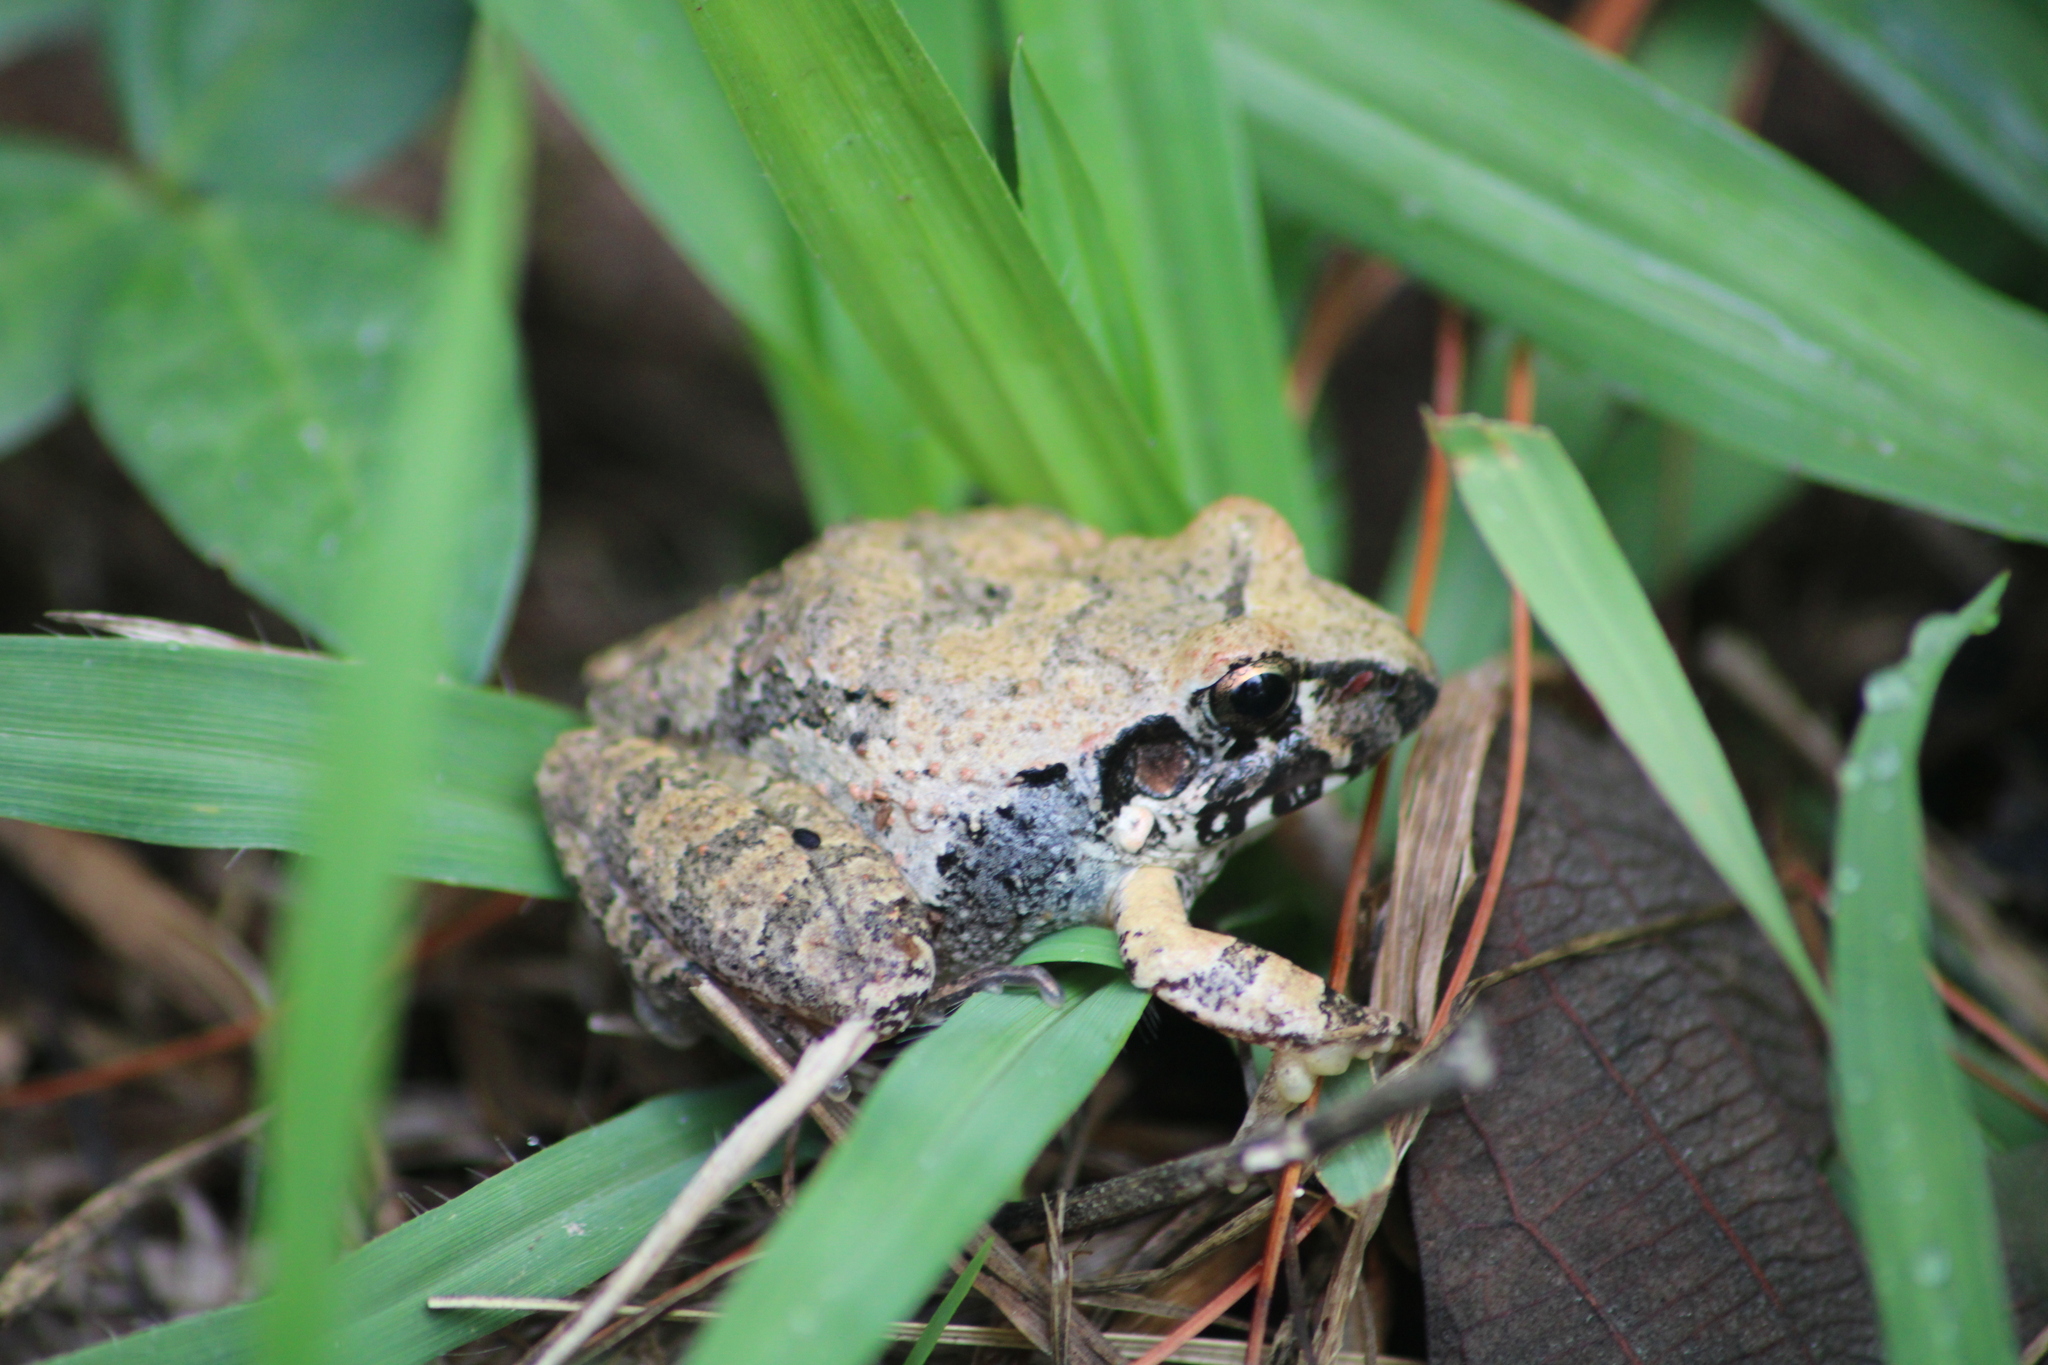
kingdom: Animalia
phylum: Chordata
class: Amphibia
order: Anura
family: Craugastoridae
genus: Craugastor
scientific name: Craugastor occidentalis
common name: Taylor's barking frog
